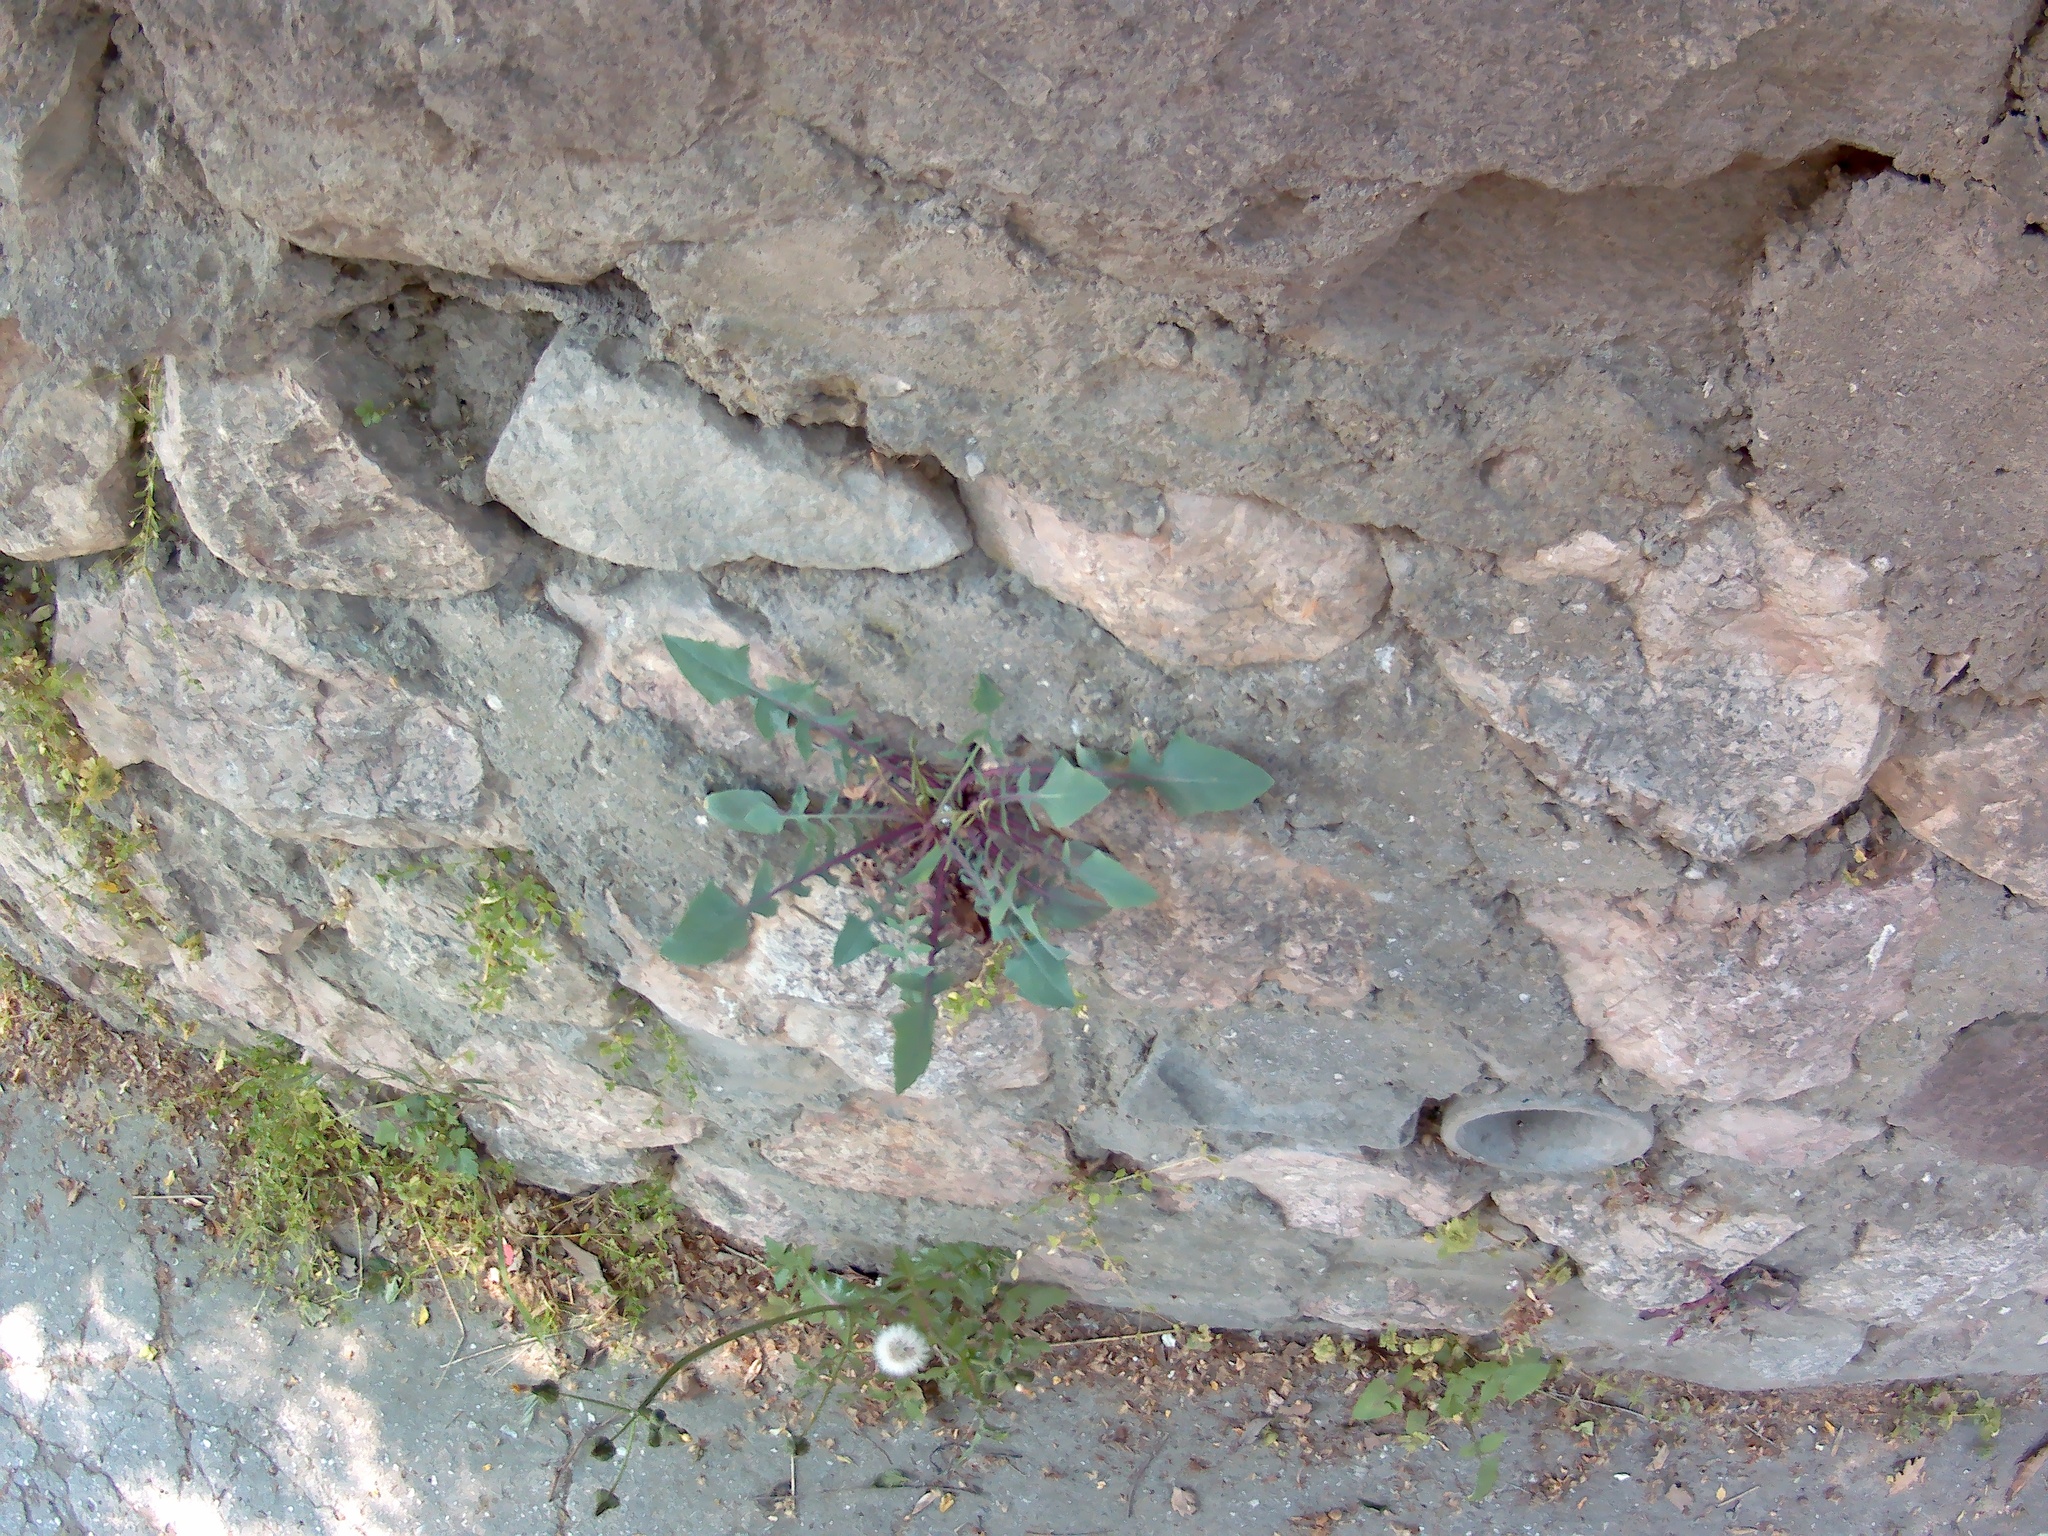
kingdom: Plantae
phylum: Tracheophyta
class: Magnoliopsida
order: Asterales
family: Asteraceae
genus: Sonchus
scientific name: Sonchus oleraceus
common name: Common sowthistle
